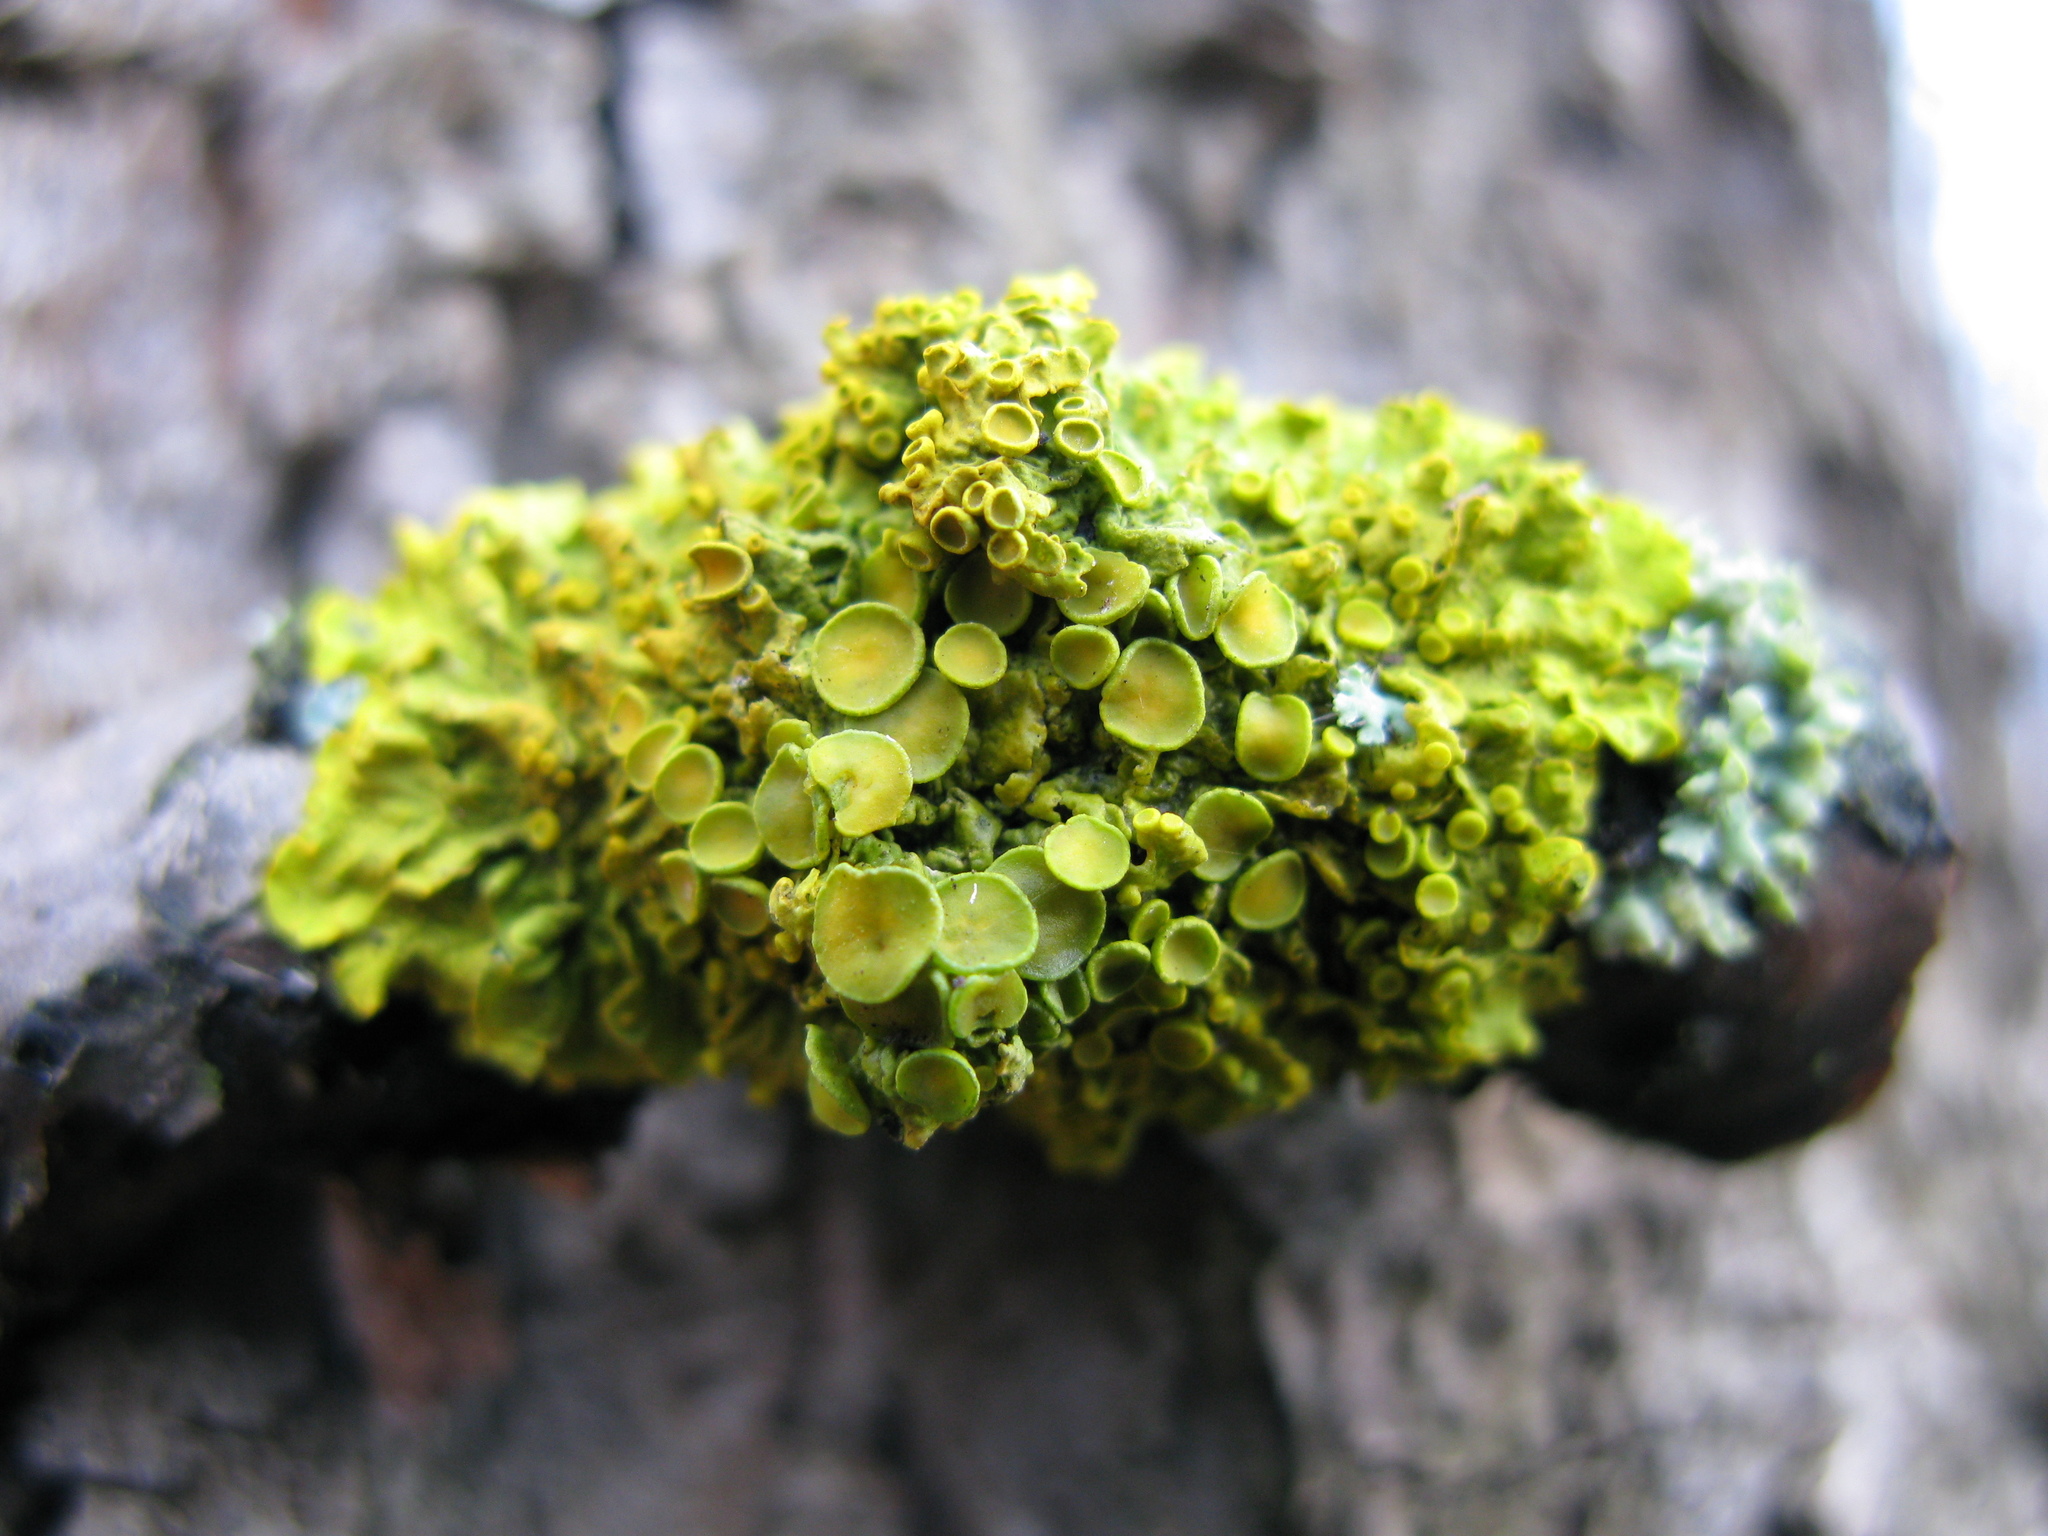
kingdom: Fungi
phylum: Ascomycota
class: Lecanoromycetes
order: Teloschistales
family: Teloschistaceae
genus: Xanthoria
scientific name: Xanthoria parietina
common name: Common orange lichen
